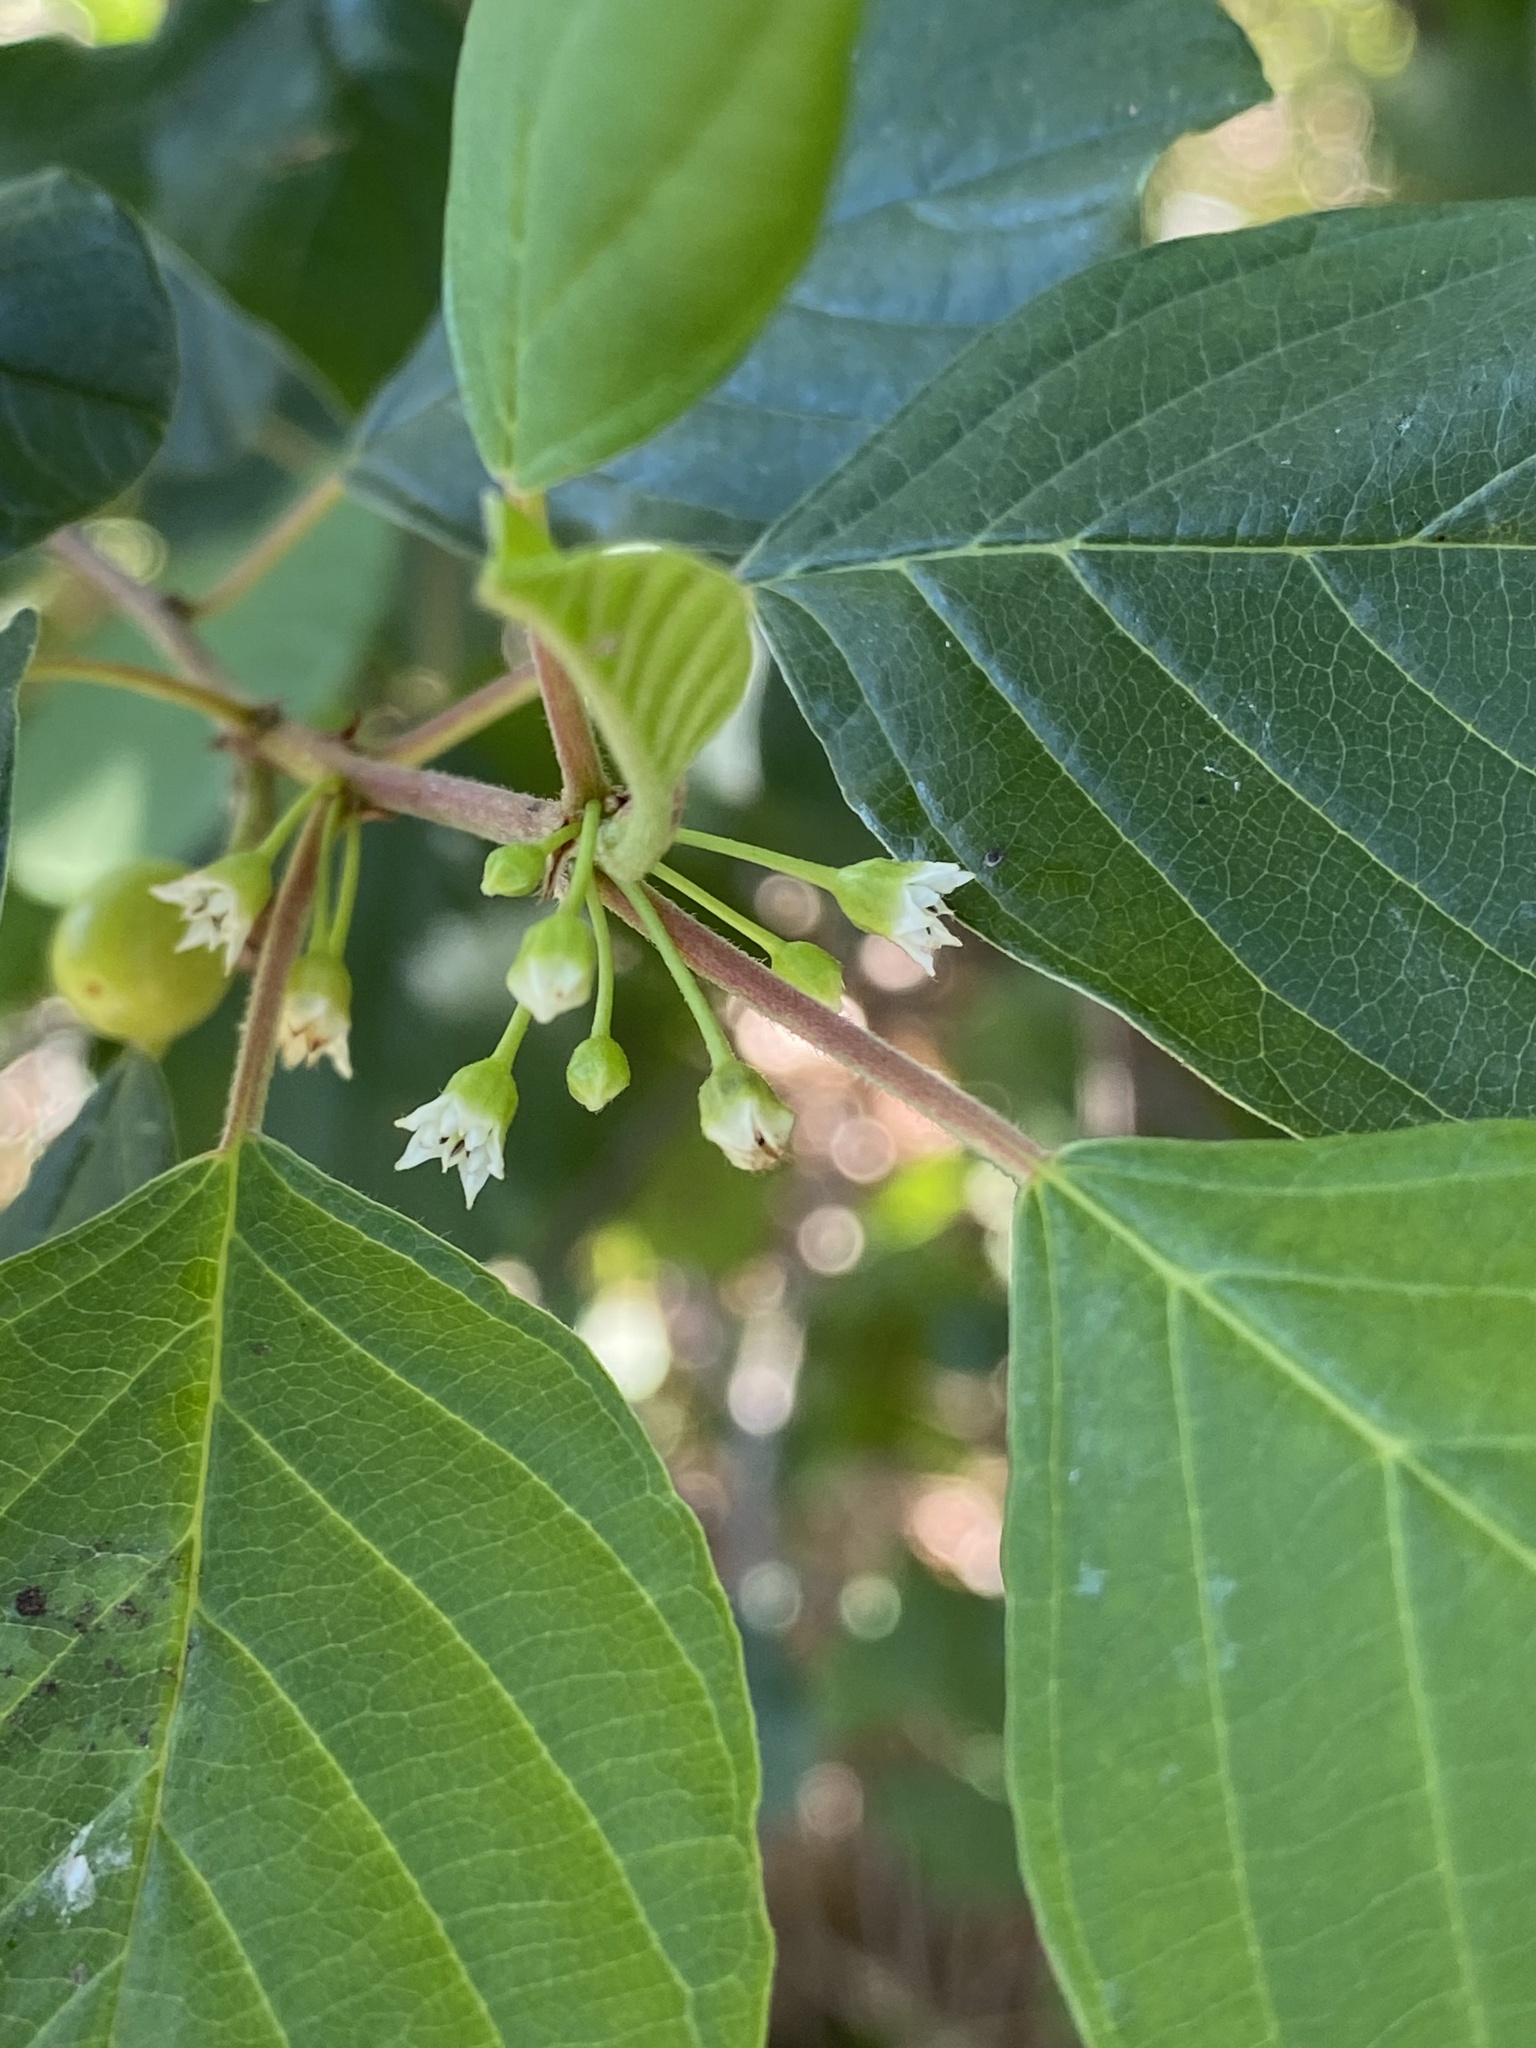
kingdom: Plantae
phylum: Tracheophyta
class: Magnoliopsida
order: Rosales
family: Rhamnaceae
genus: Frangula
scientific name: Frangula alnus
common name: Alder buckthorn
